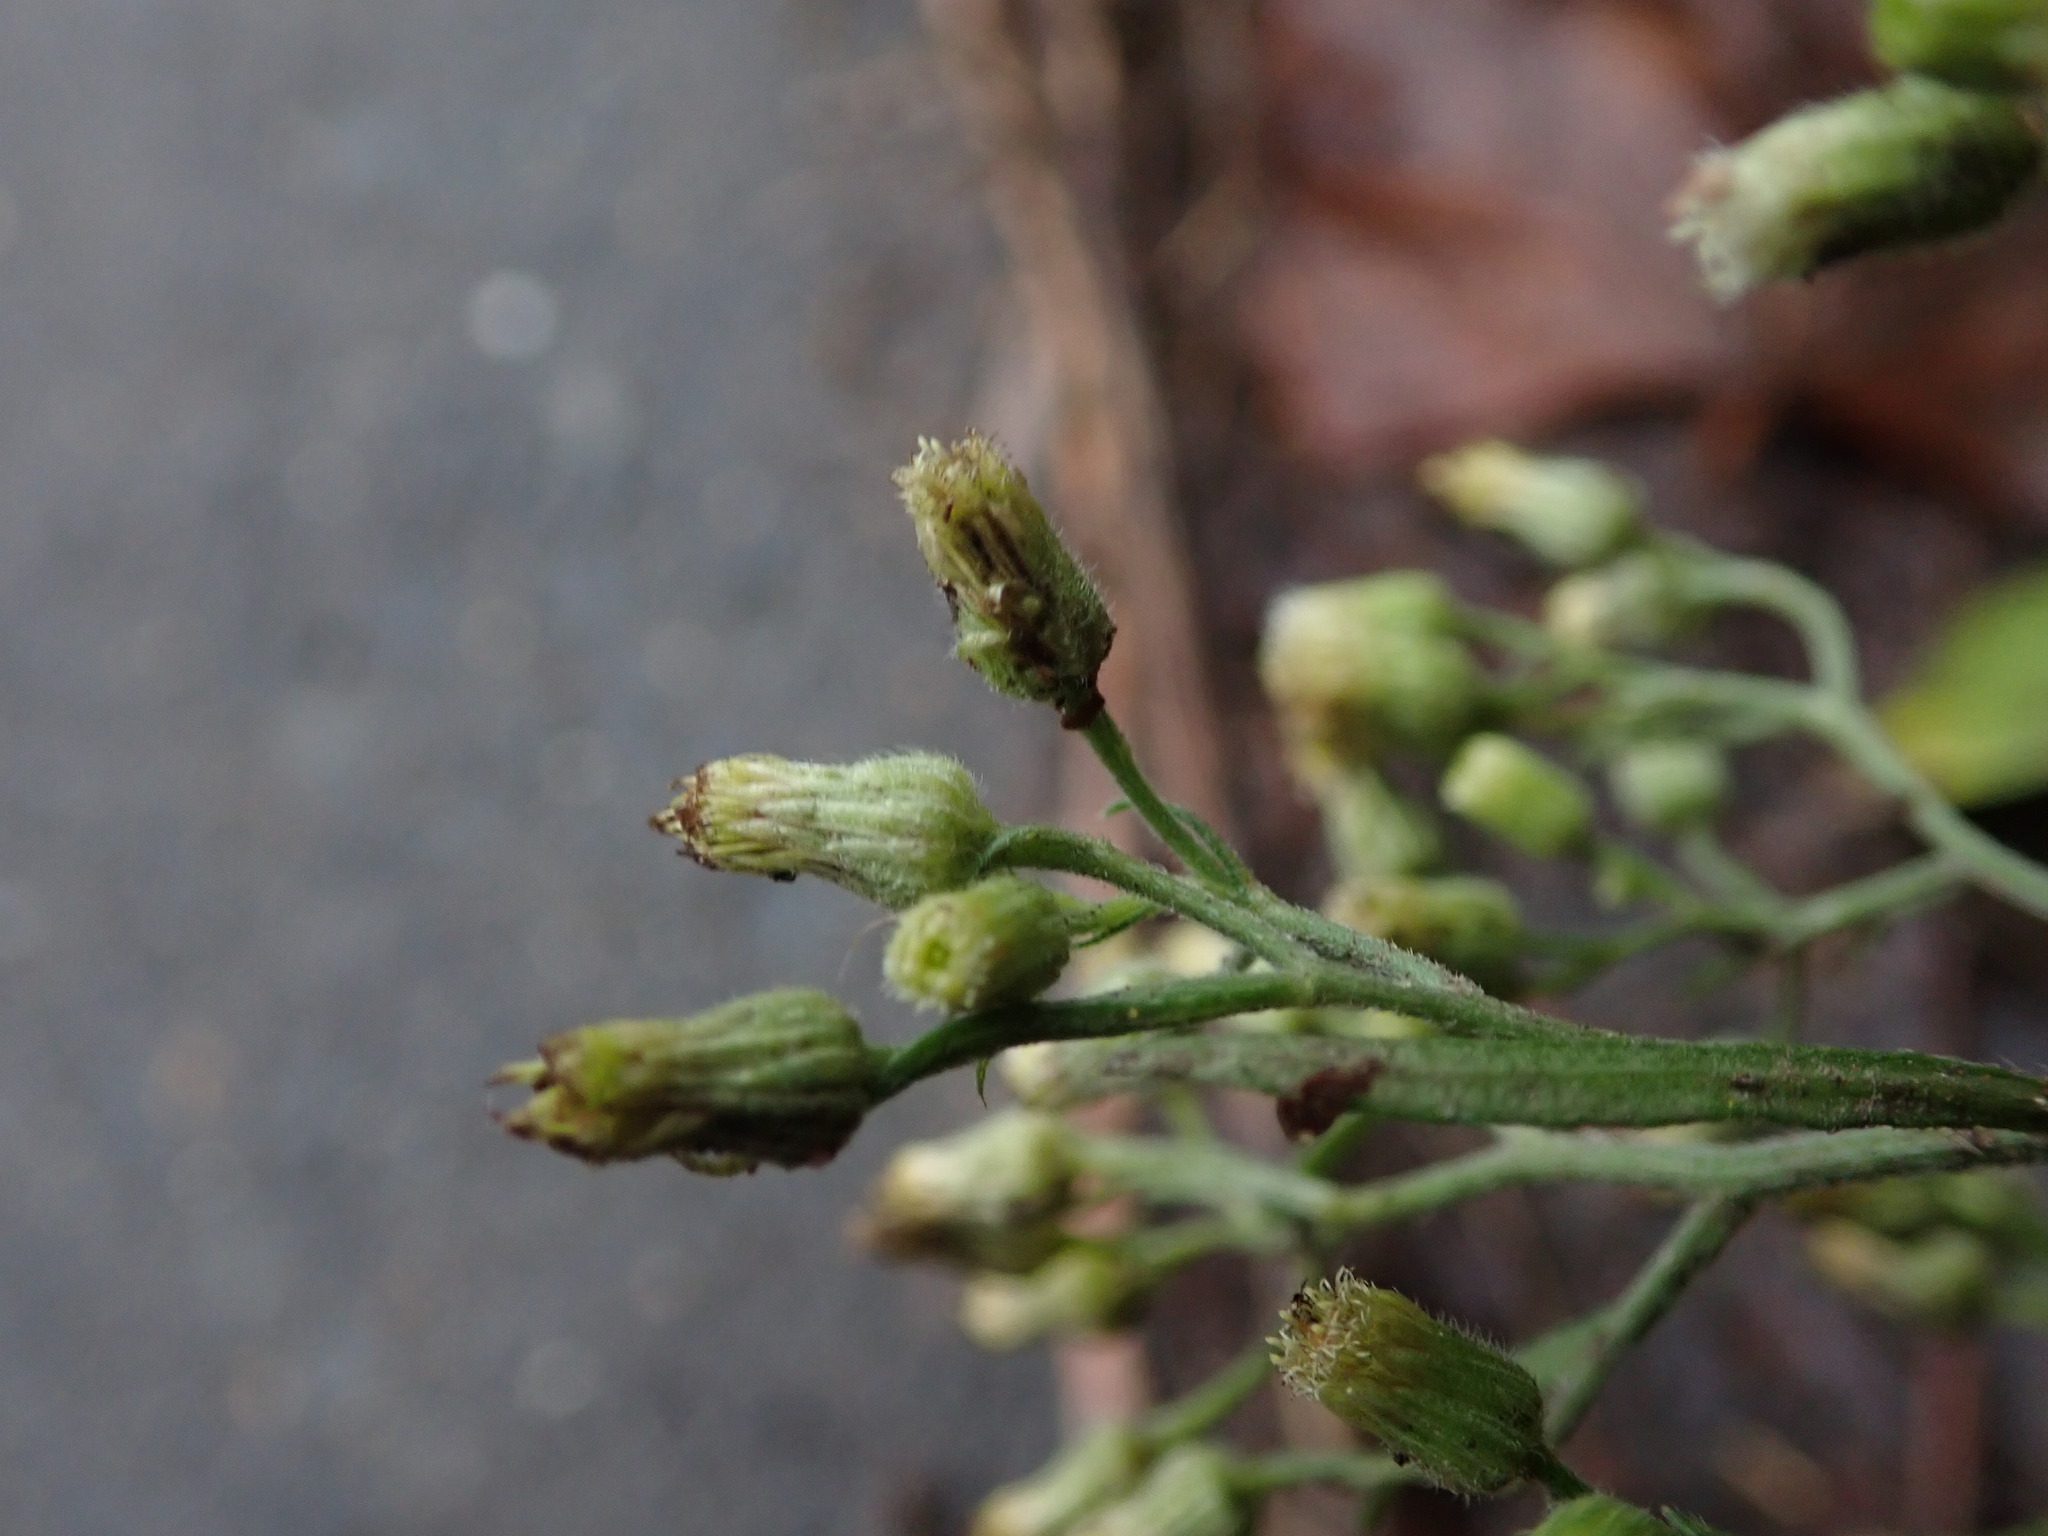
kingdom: Plantae
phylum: Tracheophyta
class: Magnoliopsida
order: Asterales
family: Asteraceae
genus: Erigeron
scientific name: Erigeron sumatrensis
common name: Daisy
